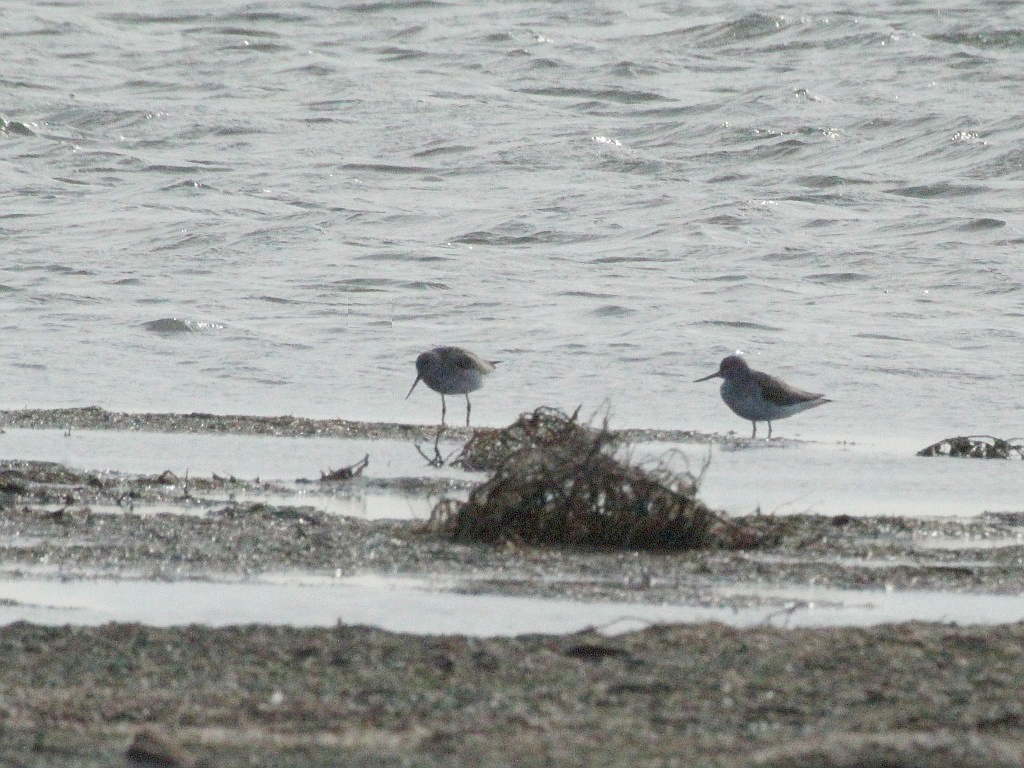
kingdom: Animalia
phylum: Chordata
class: Aves
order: Charadriiformes
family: Scolopacidae
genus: Tringa
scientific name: Tringa nebularia
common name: Common greenshank
